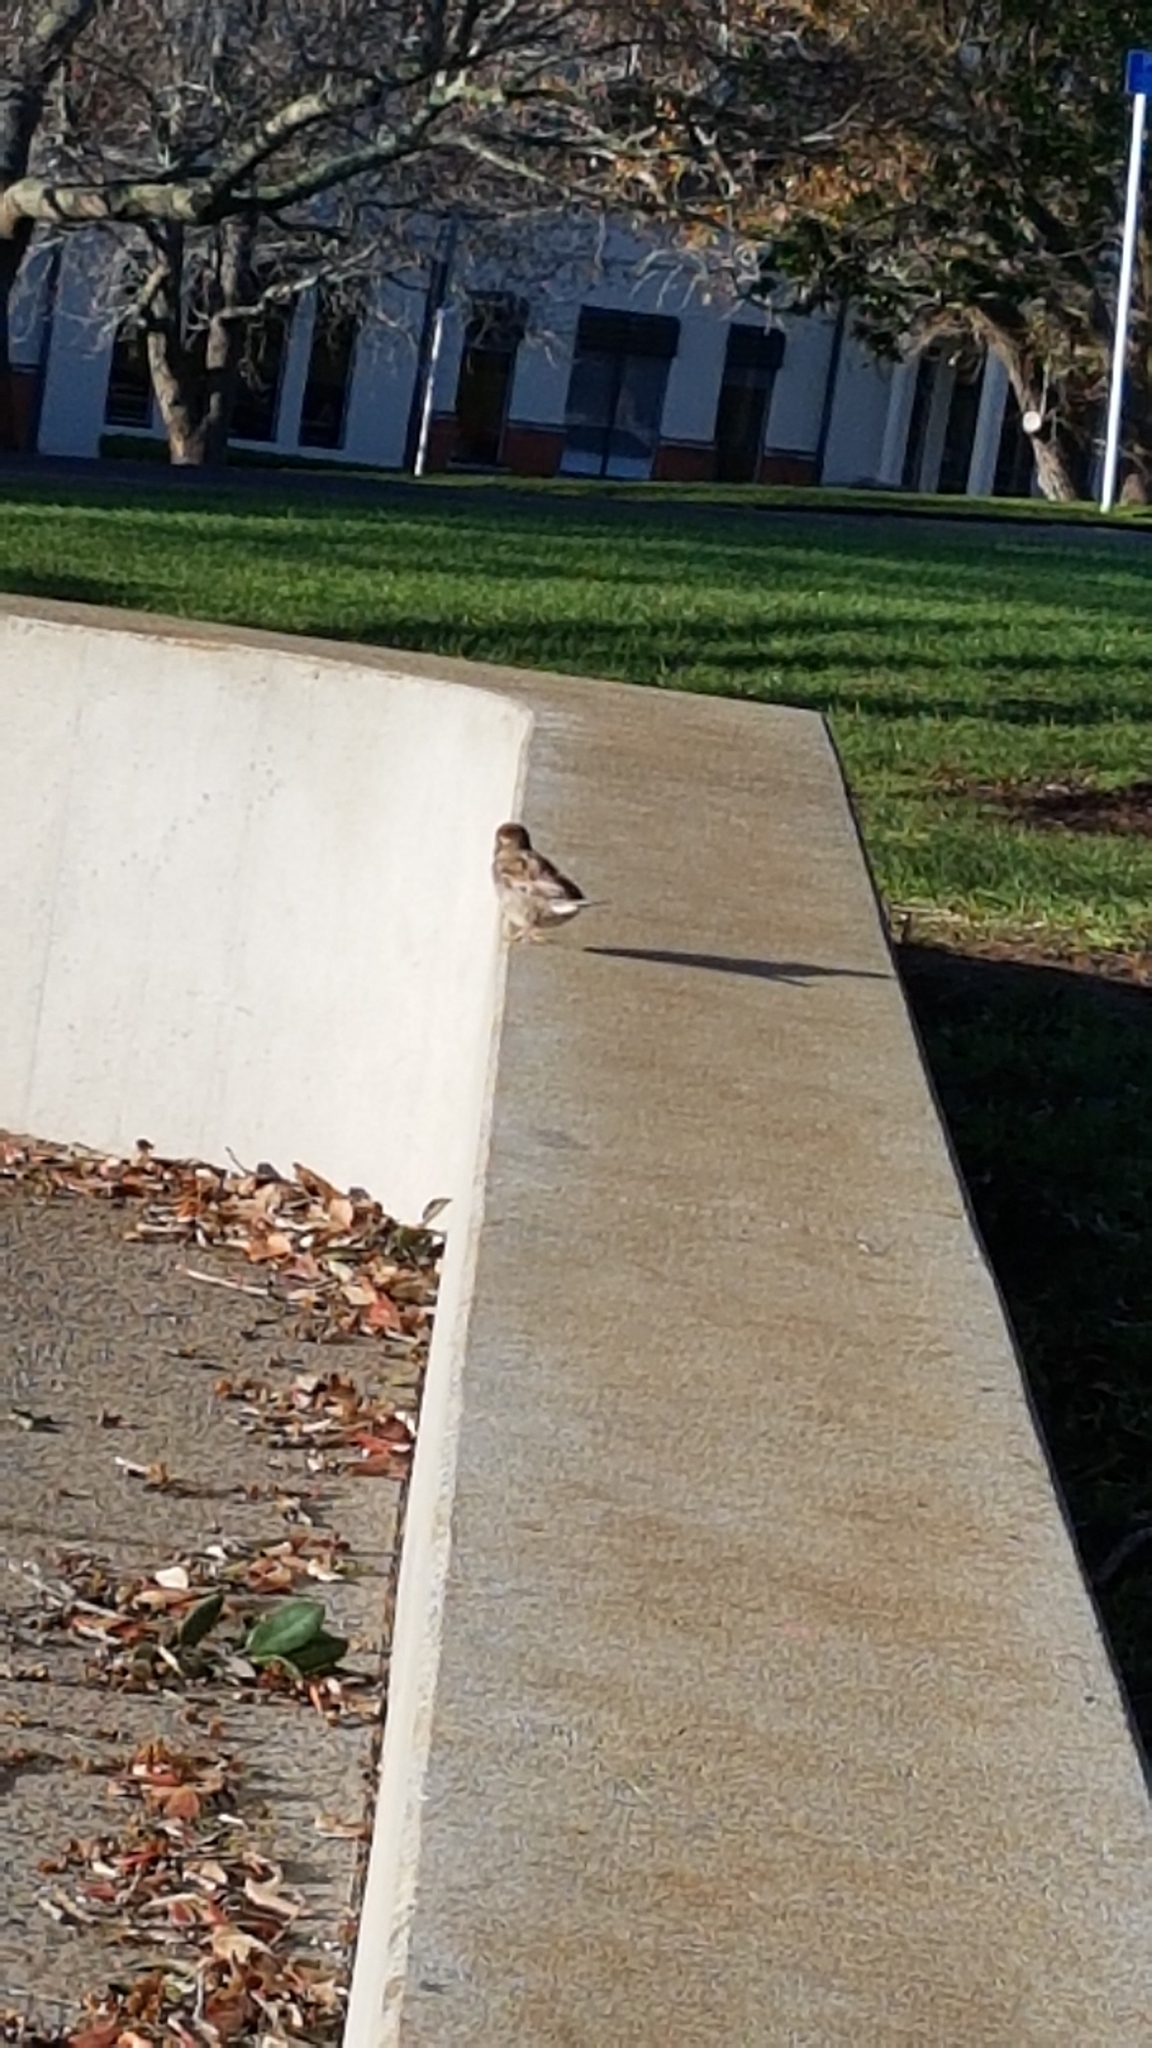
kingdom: Animalia
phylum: Chordata
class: Aves
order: Passeriformes
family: Passeridae
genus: Passer
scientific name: Passer domesticus
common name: House sparrow
